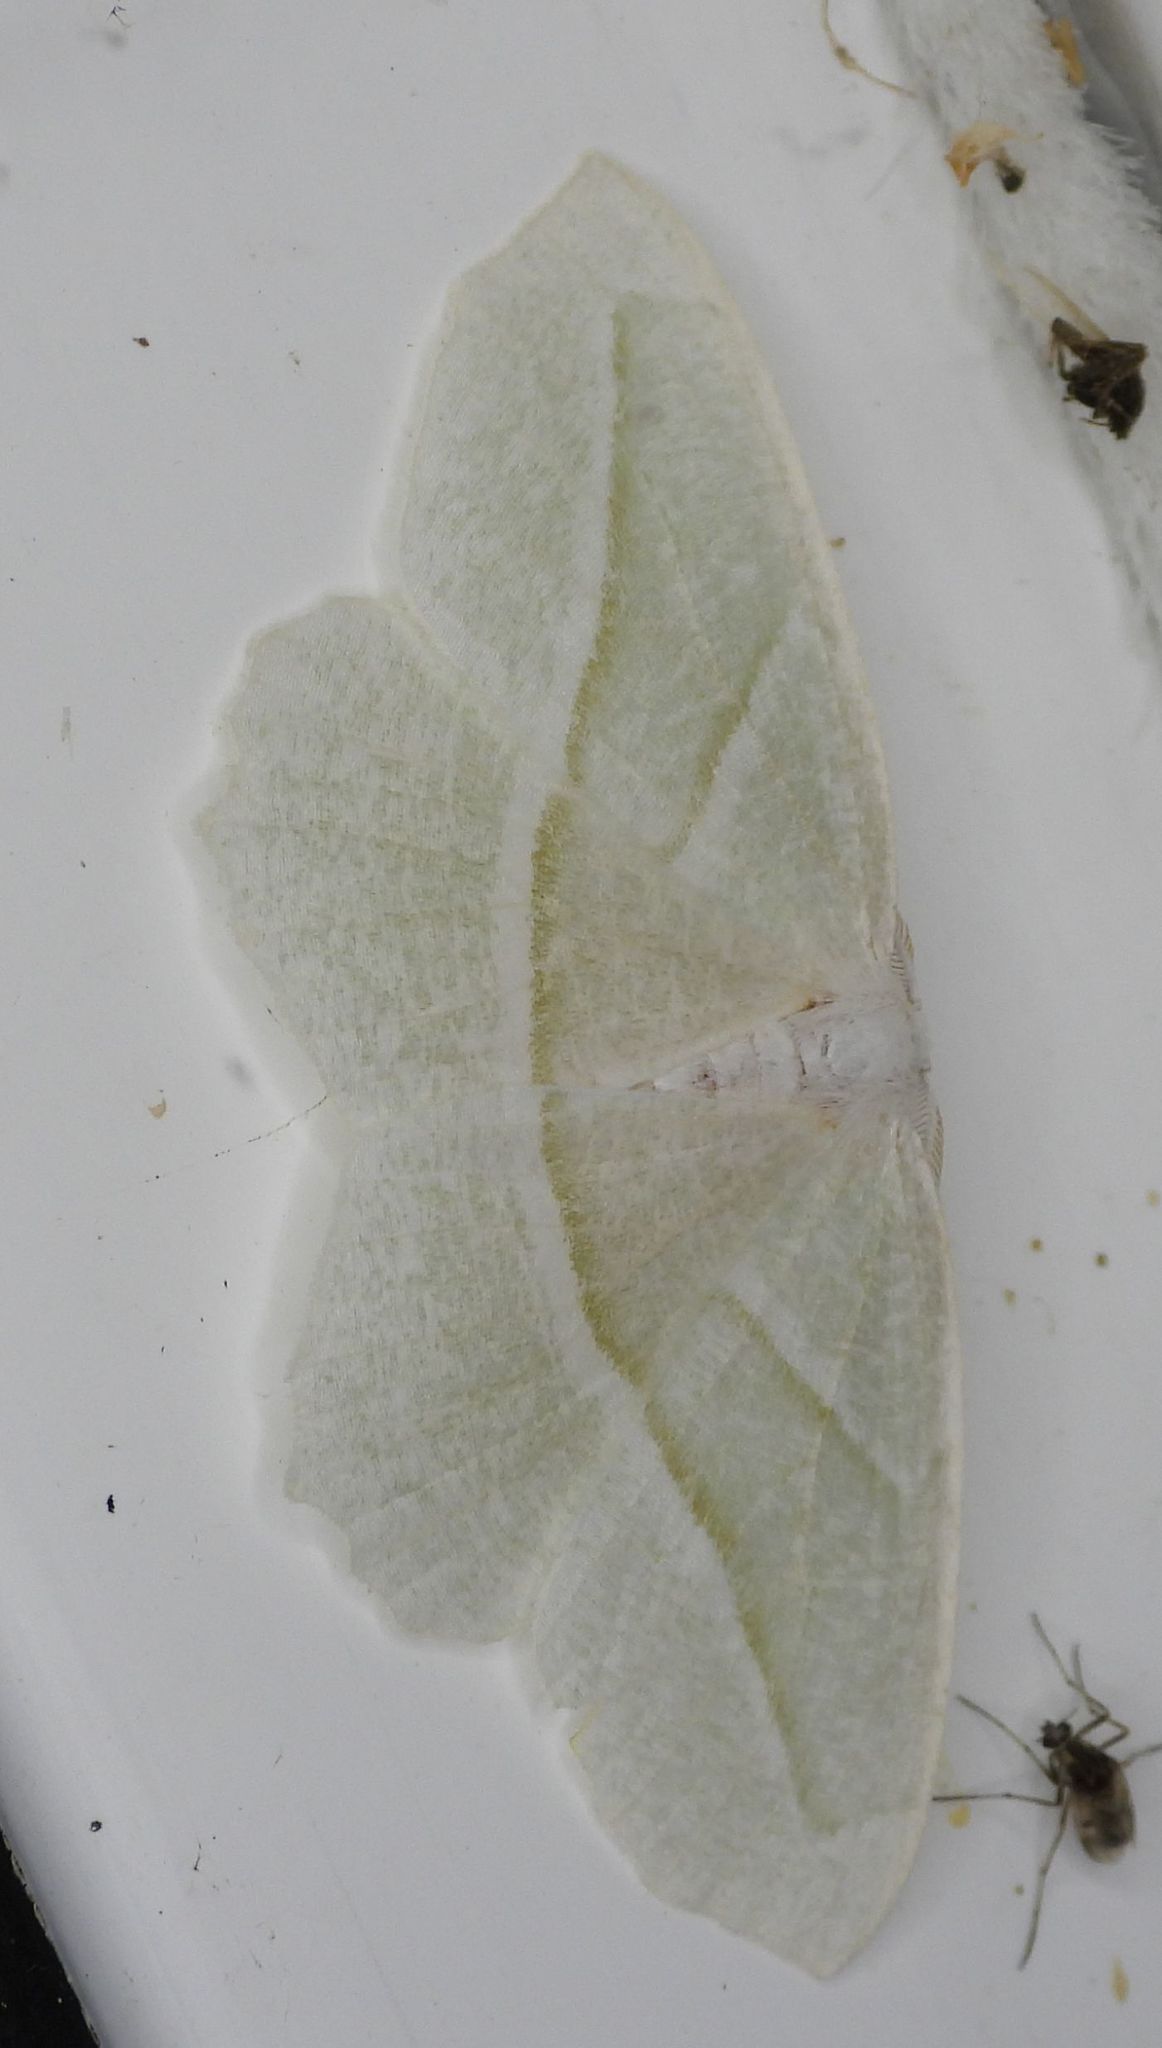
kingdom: Animalia
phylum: Arthropoda
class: Insecta
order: Lepidoptera
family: Geometridae
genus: Campaea
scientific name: Campaea perlata
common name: Fringed looper
